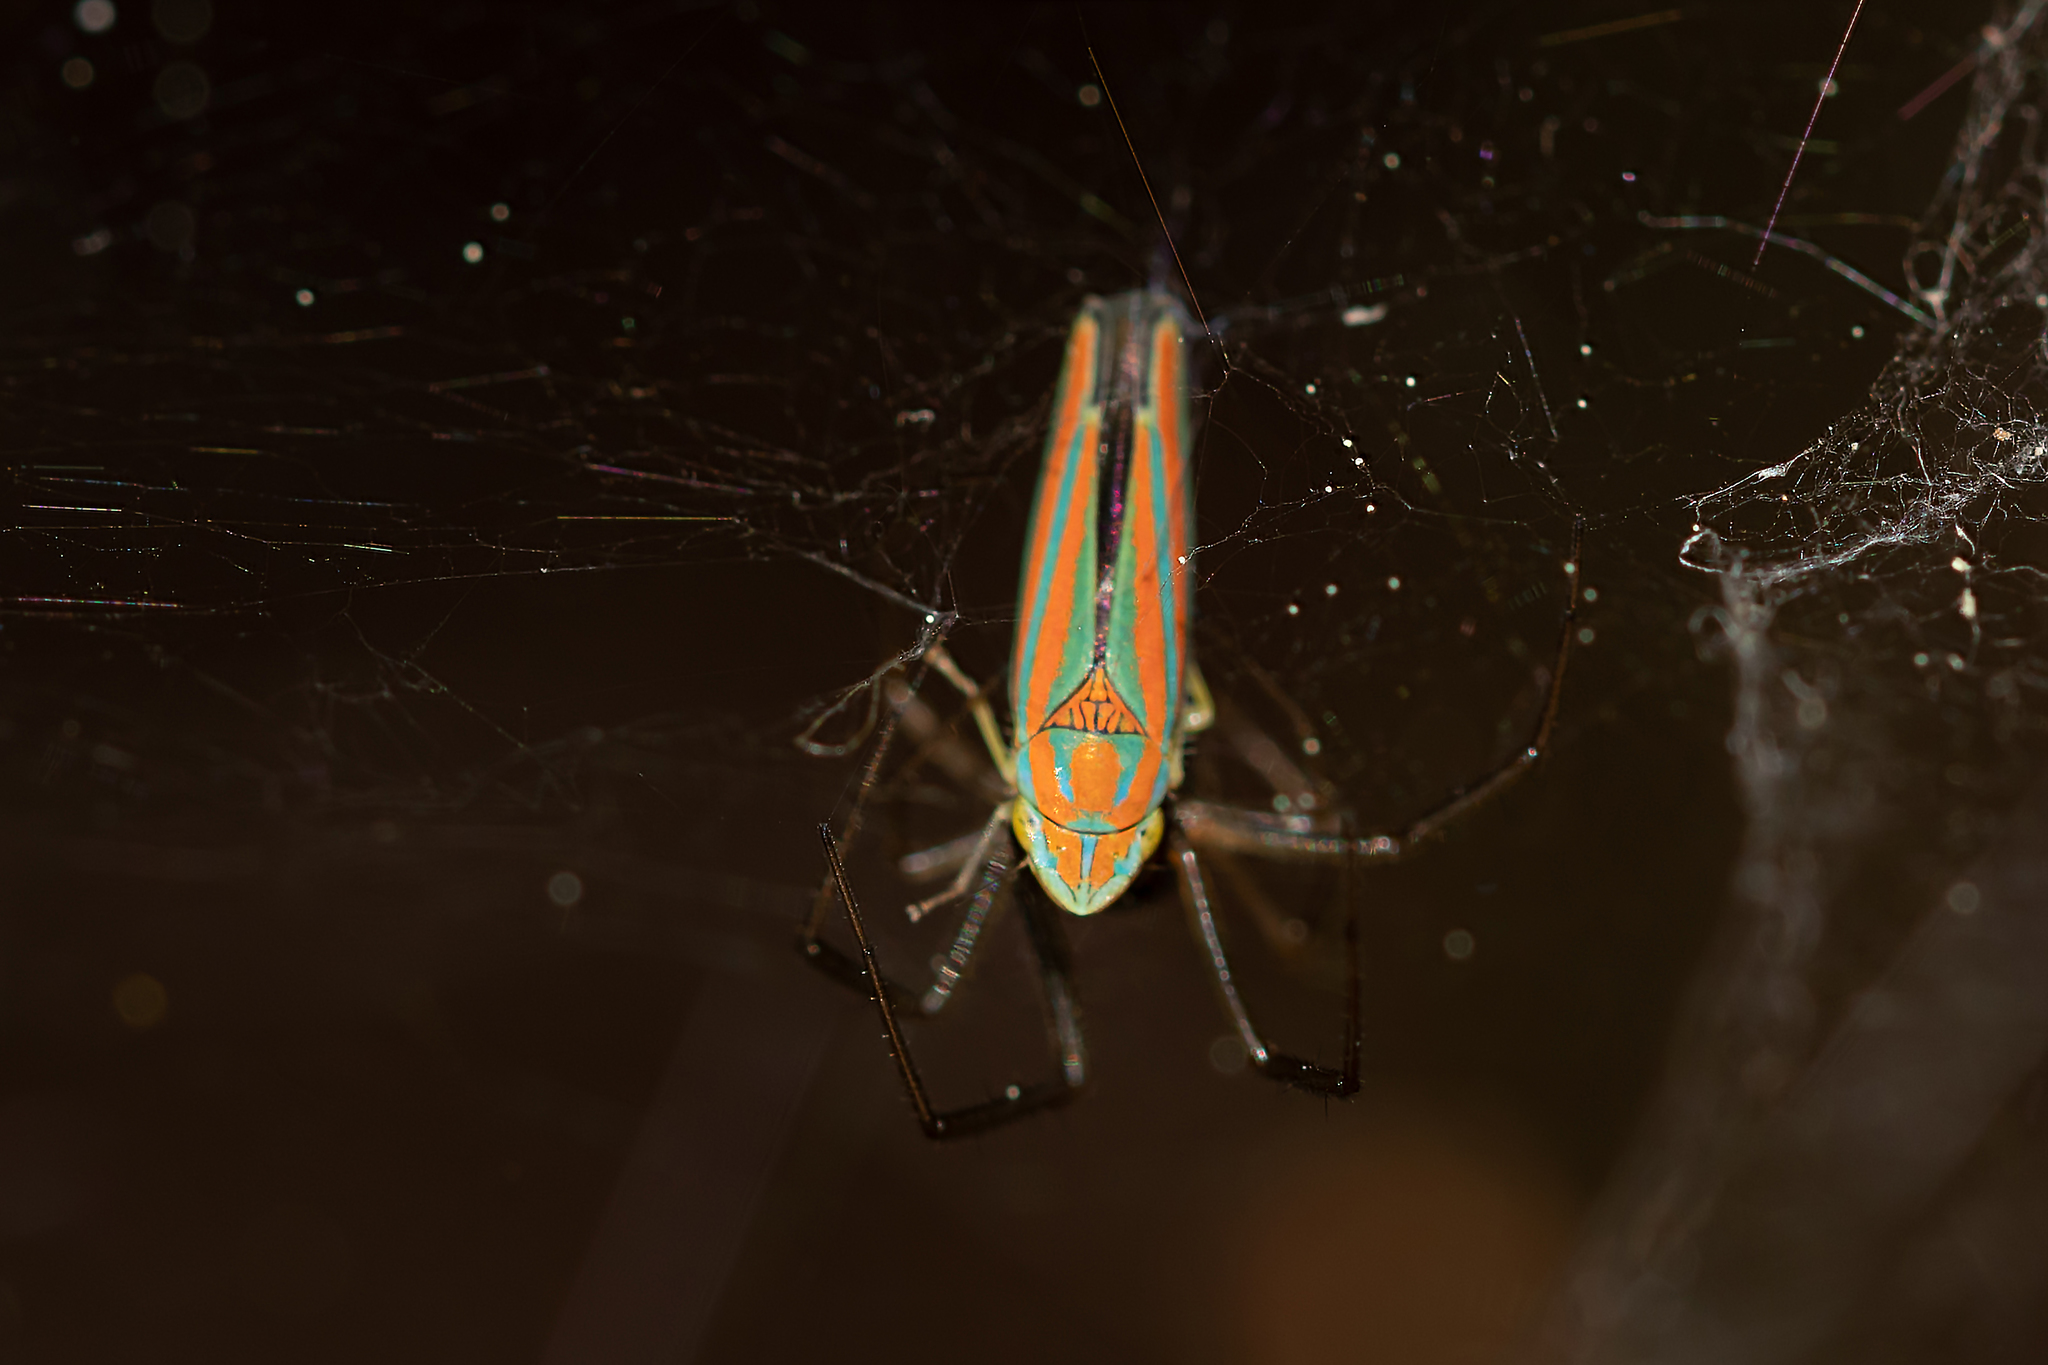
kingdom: Animalia
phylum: Arthropoda
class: Insecta
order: Hemiptera
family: Cicadellidae
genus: Graphocephala
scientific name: Graphocephala versuta
